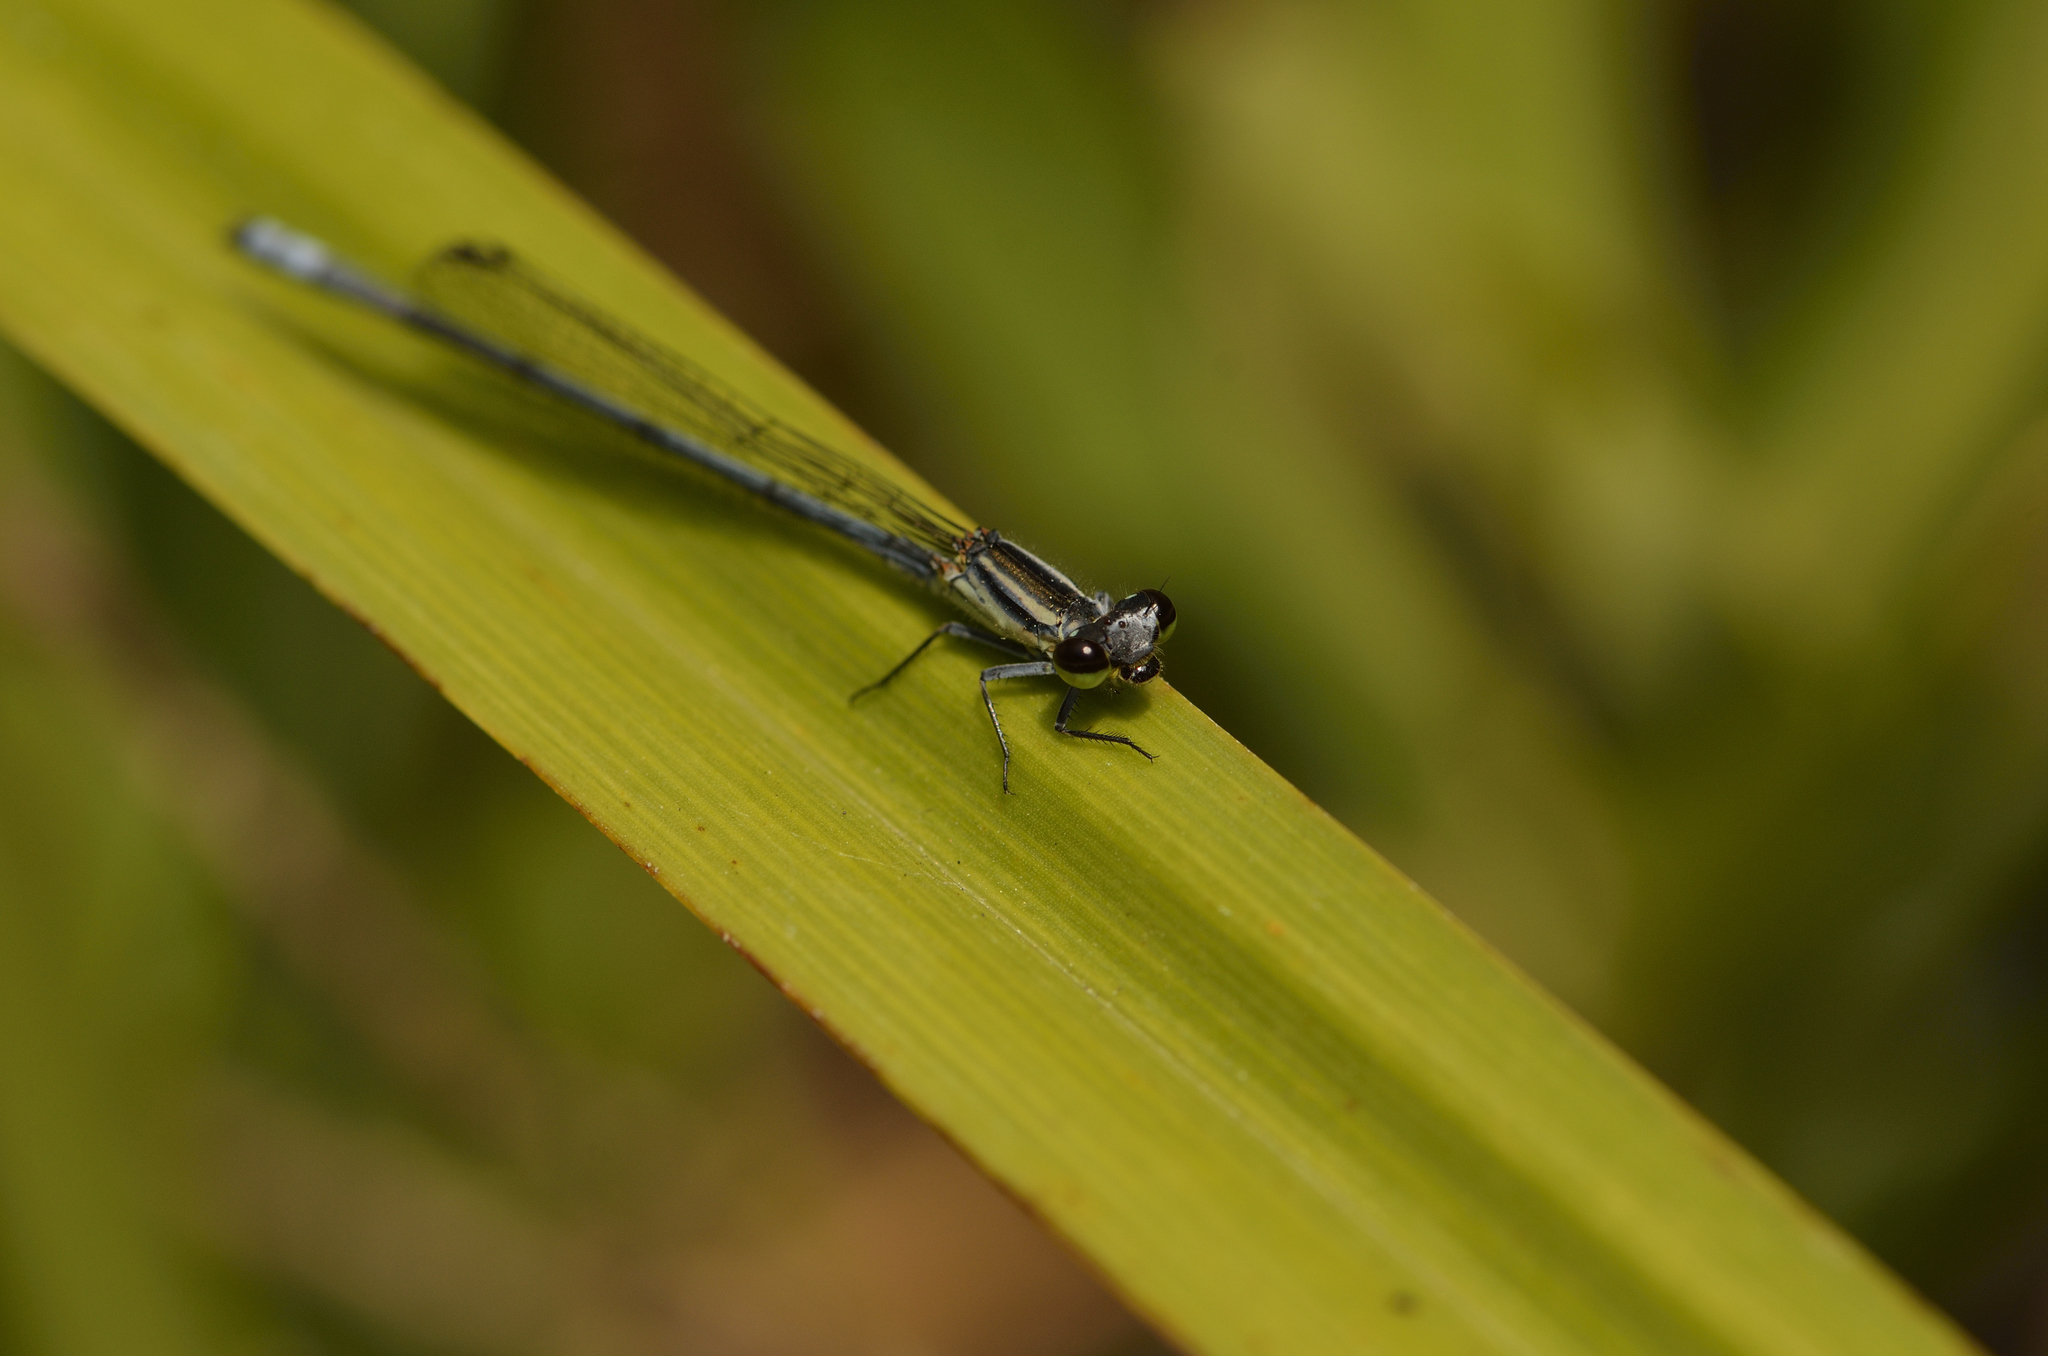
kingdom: Animalia
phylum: Arthropoda
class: Insecta
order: Odonata
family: Coenagrionidae
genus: Pseudagrion
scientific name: Pseudagrion kersteni
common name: Powder-faced sprite
